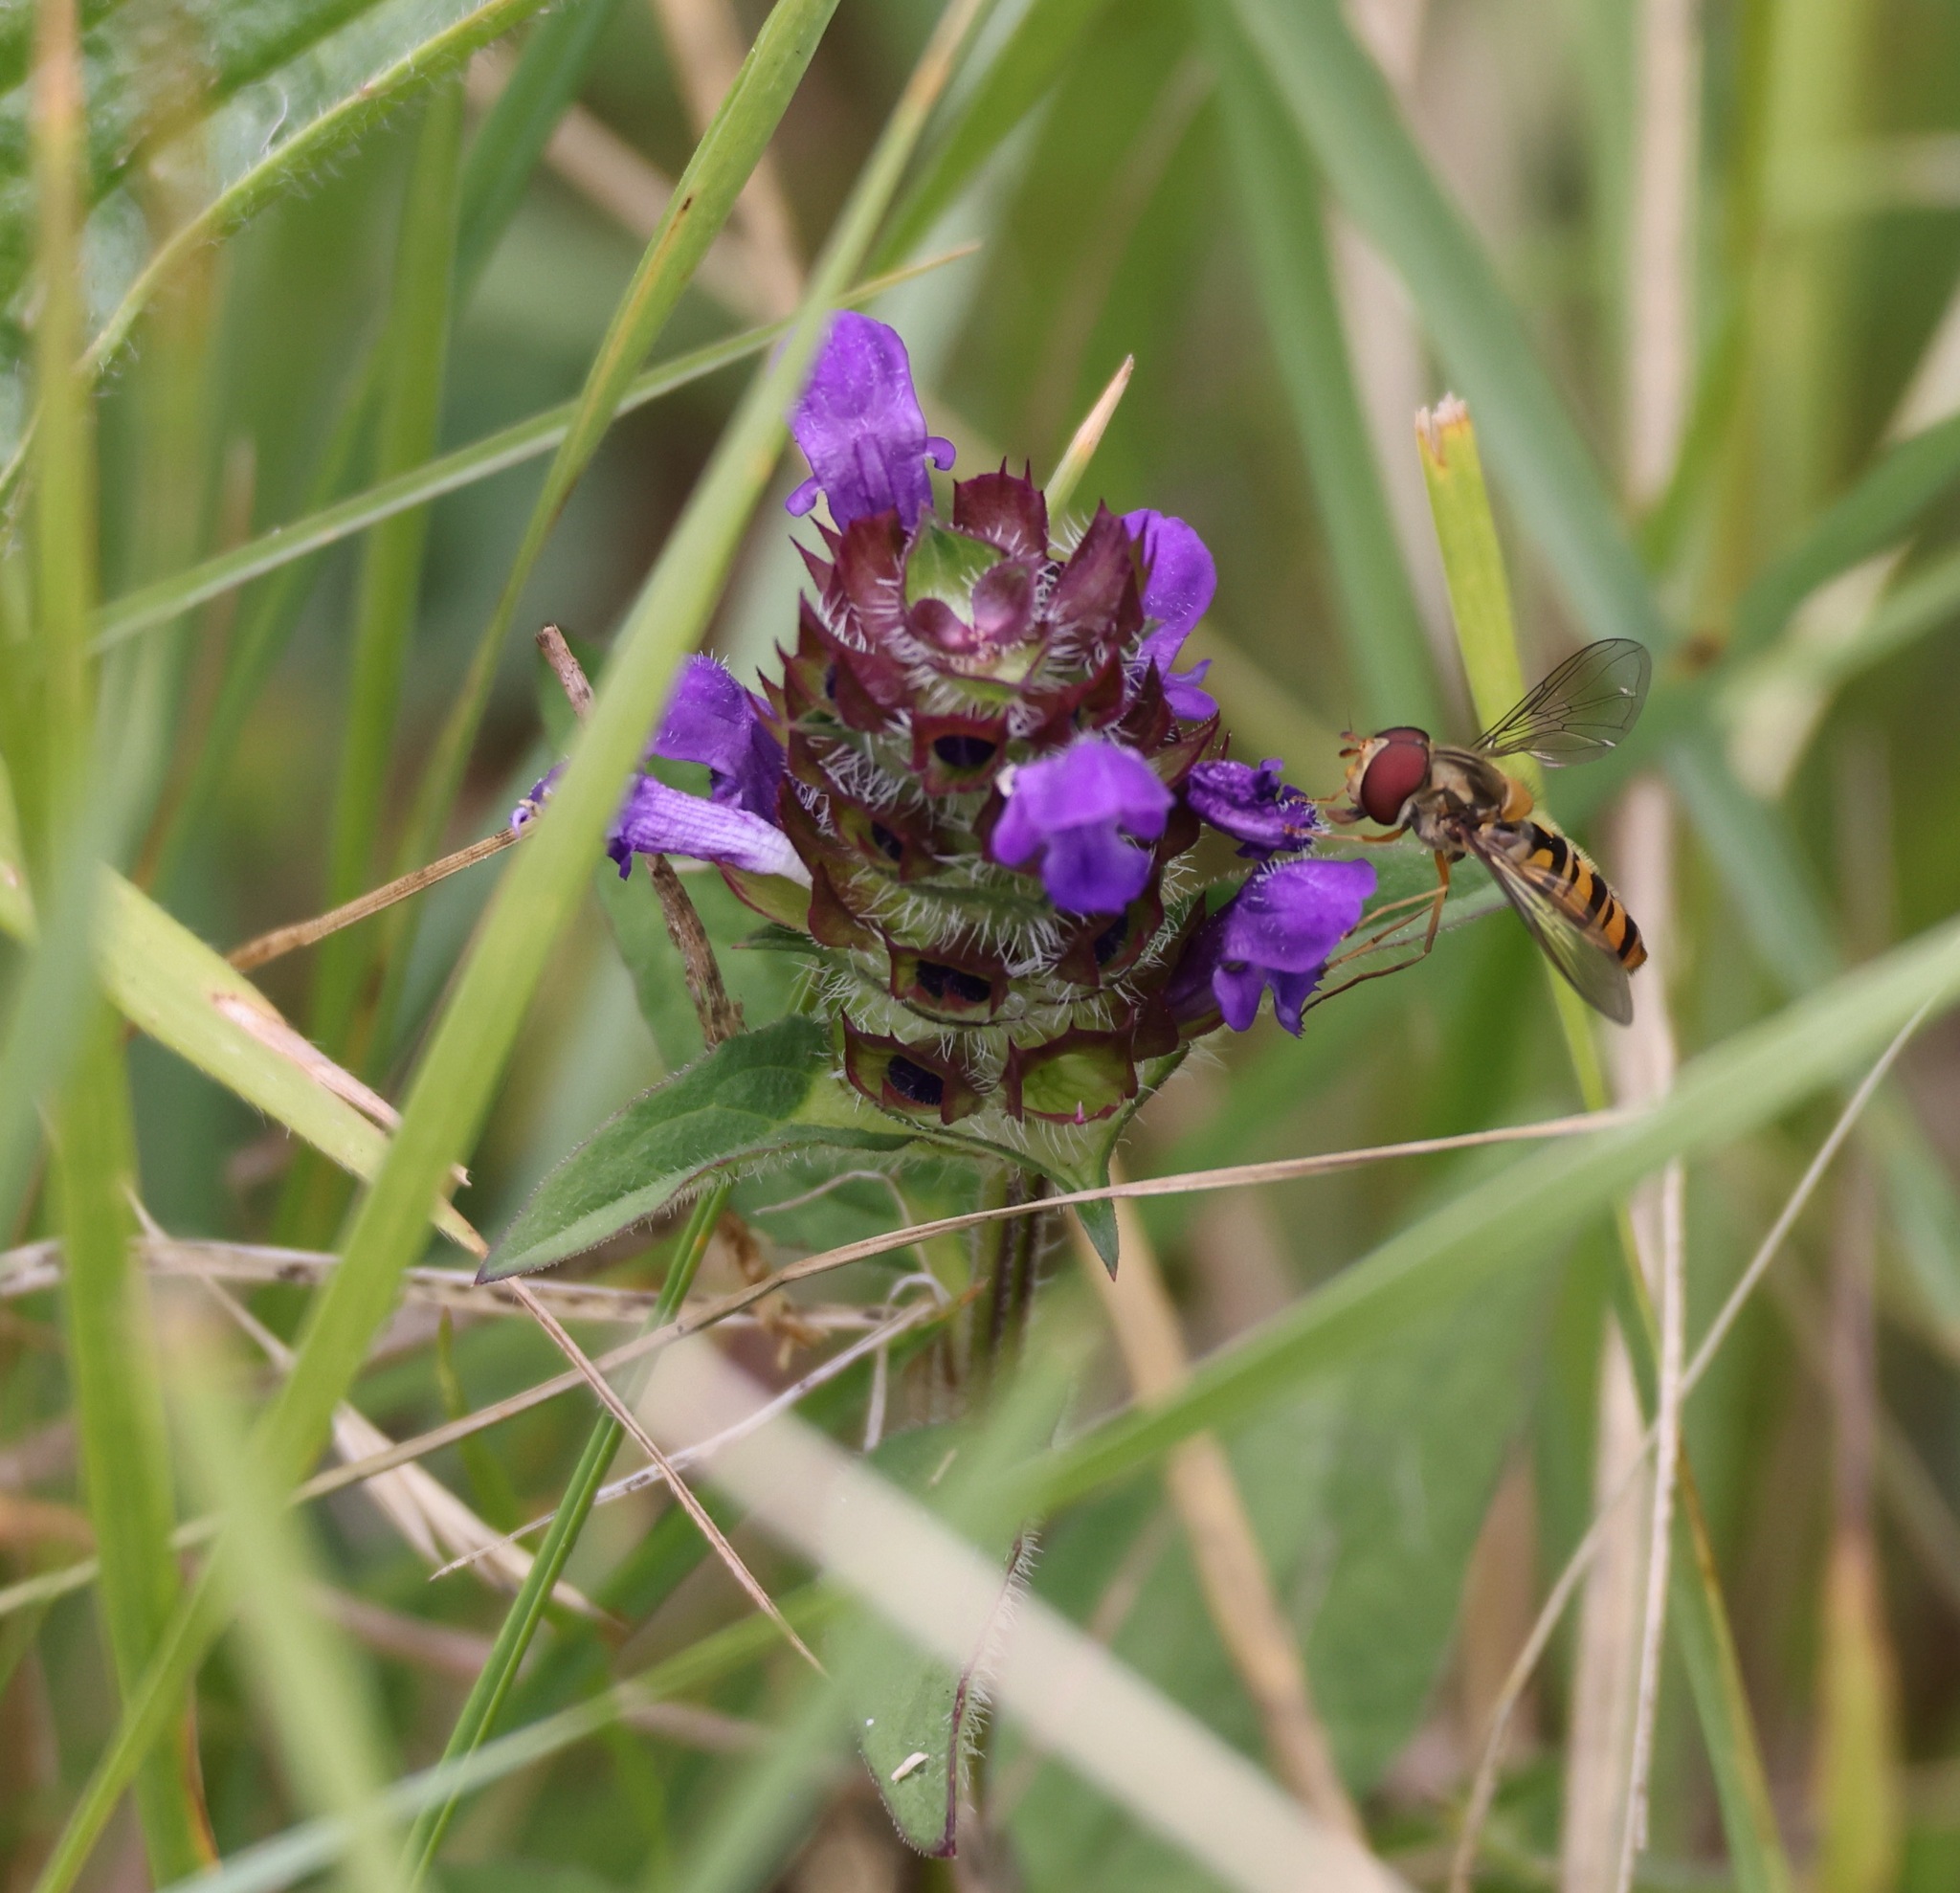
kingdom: Plantae
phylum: Tracheophyta
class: Magnoliopsida
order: Lamiales
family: Lamiaceae
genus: Prunella
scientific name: Prunella vulgaris
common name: Heal-all
